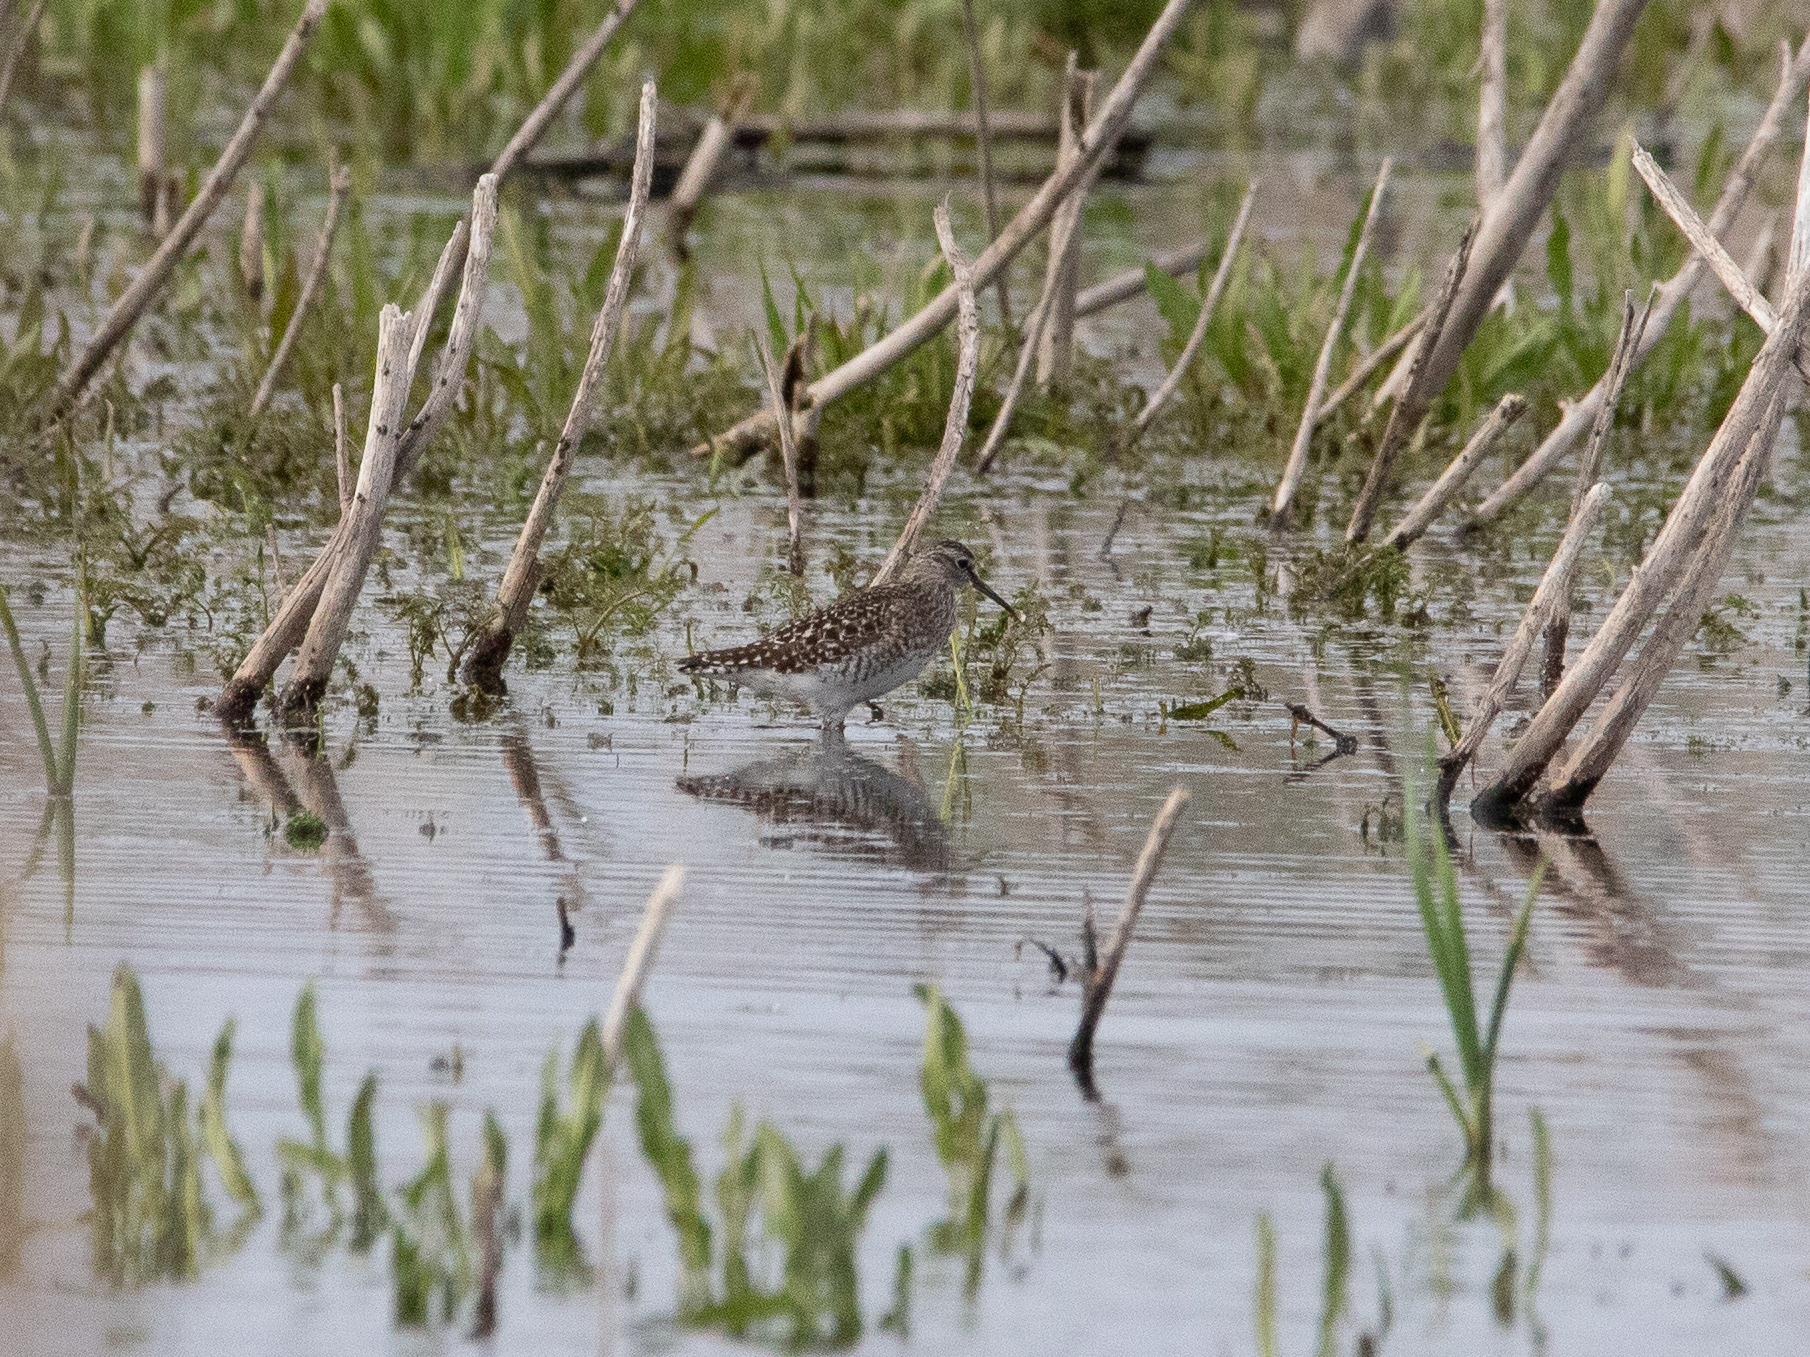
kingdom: Animalia
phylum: Chordata
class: Aves
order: Charadriiformes
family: Scolopacidae
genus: Tringa
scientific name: Tringa glareola
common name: Wood sandpiper
